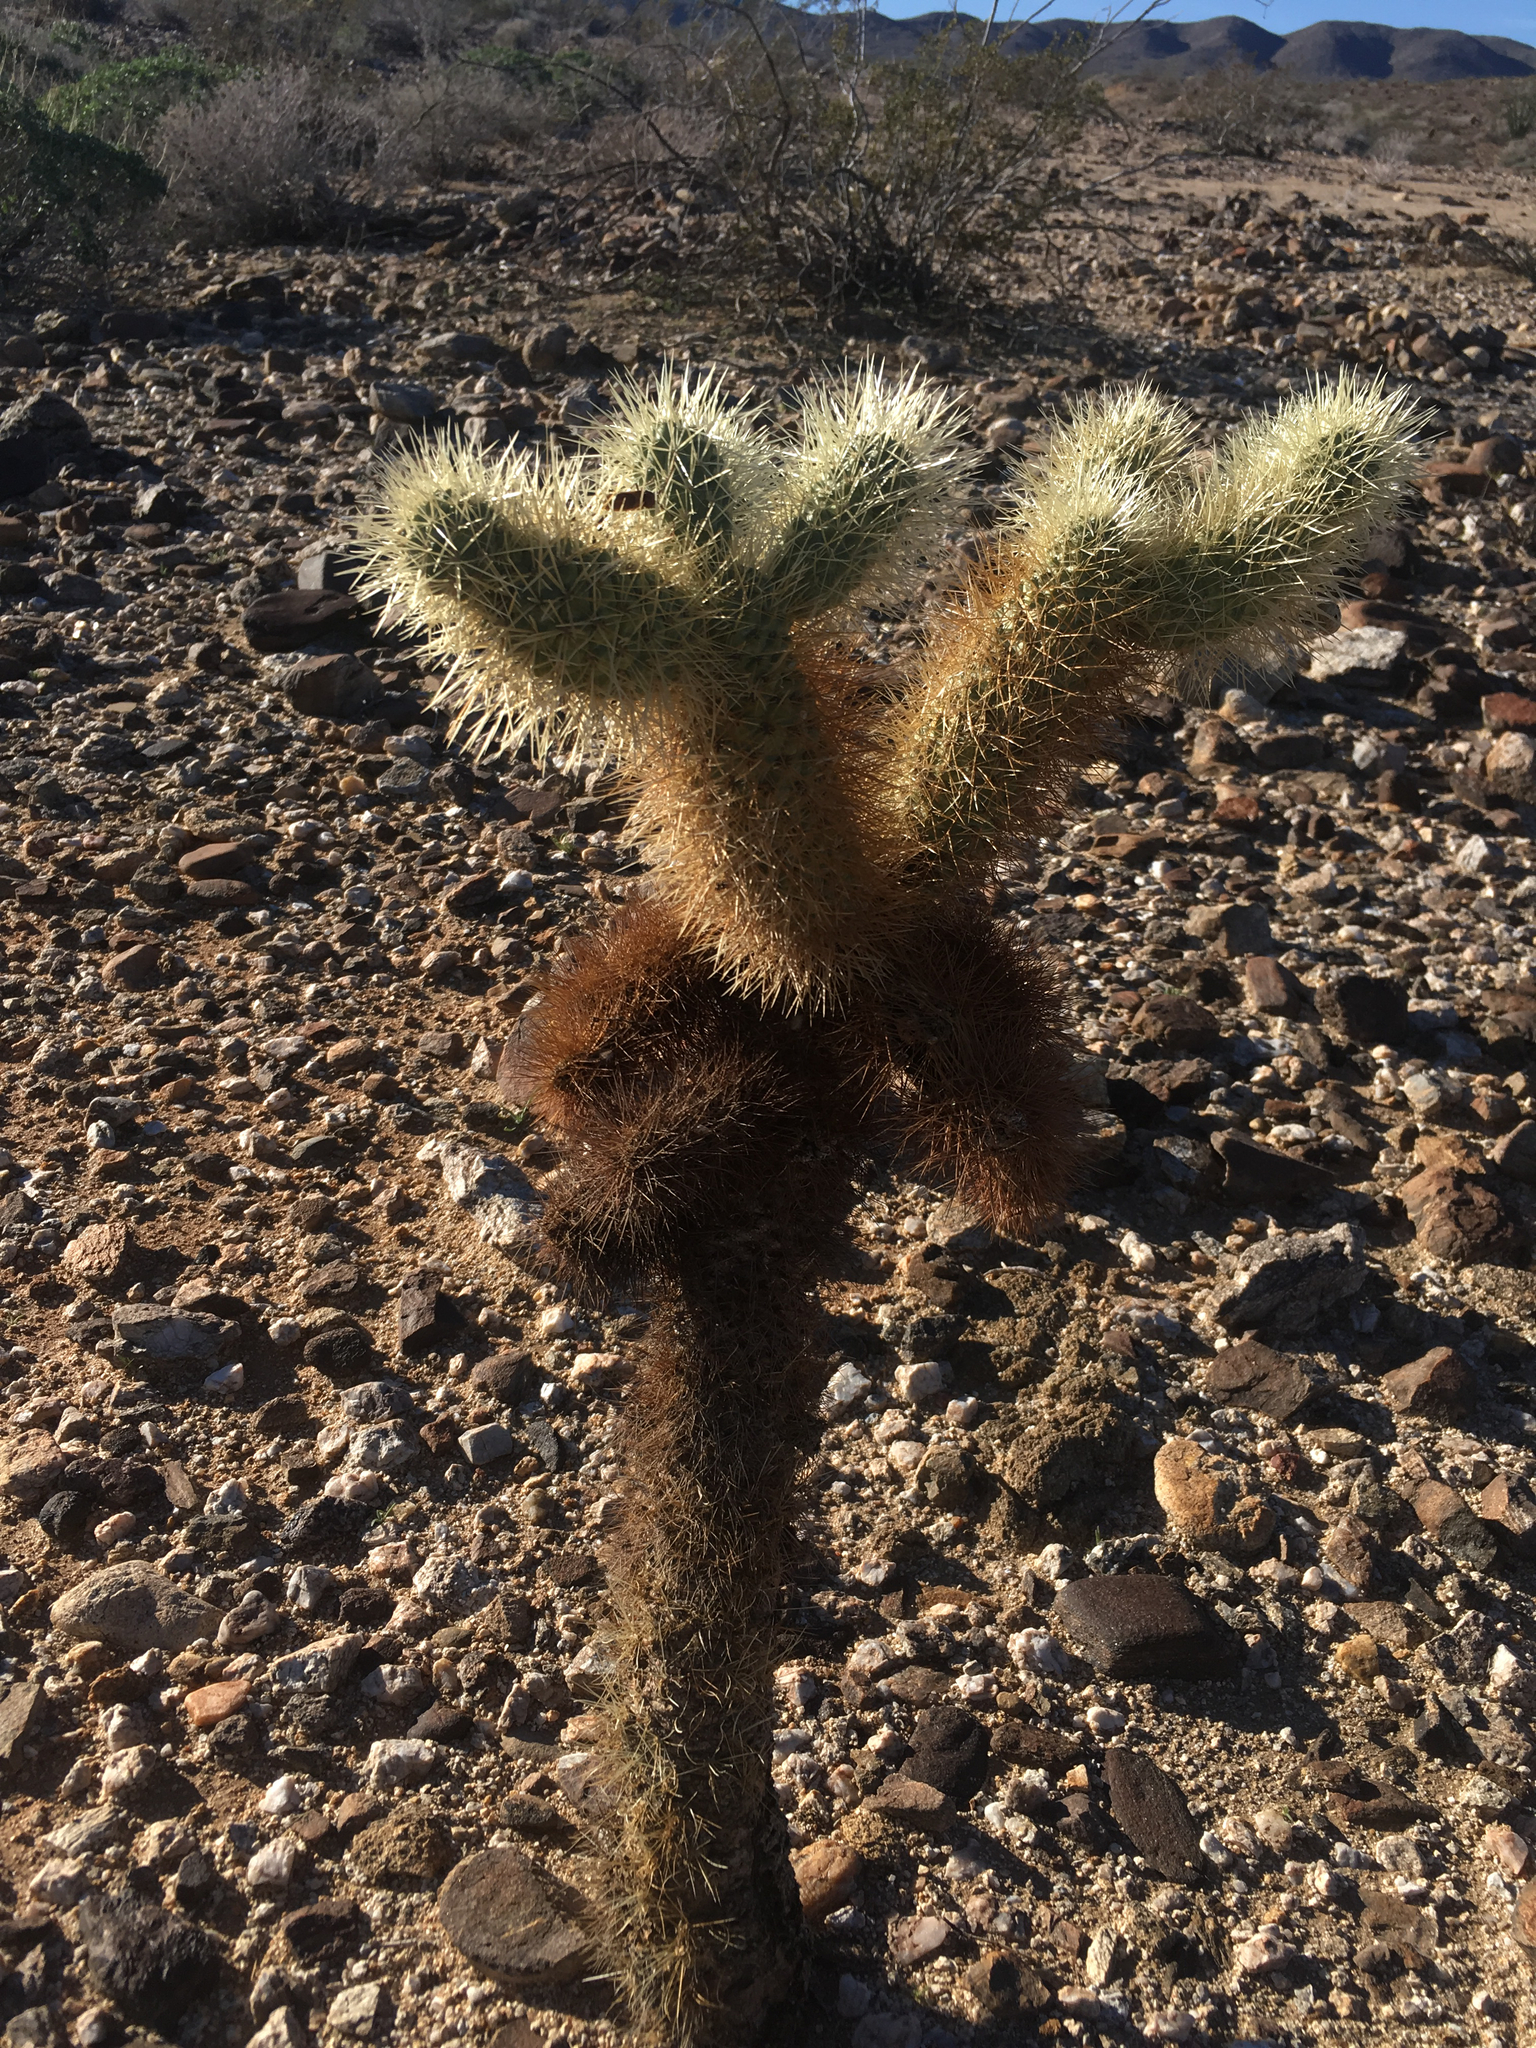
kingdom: Plantae
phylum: Tracheophyta
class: Magnoliopsida
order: Caryophyllales
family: Cactaceae
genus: Cylindropuntia
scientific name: Cylindropuntia fosbergii
